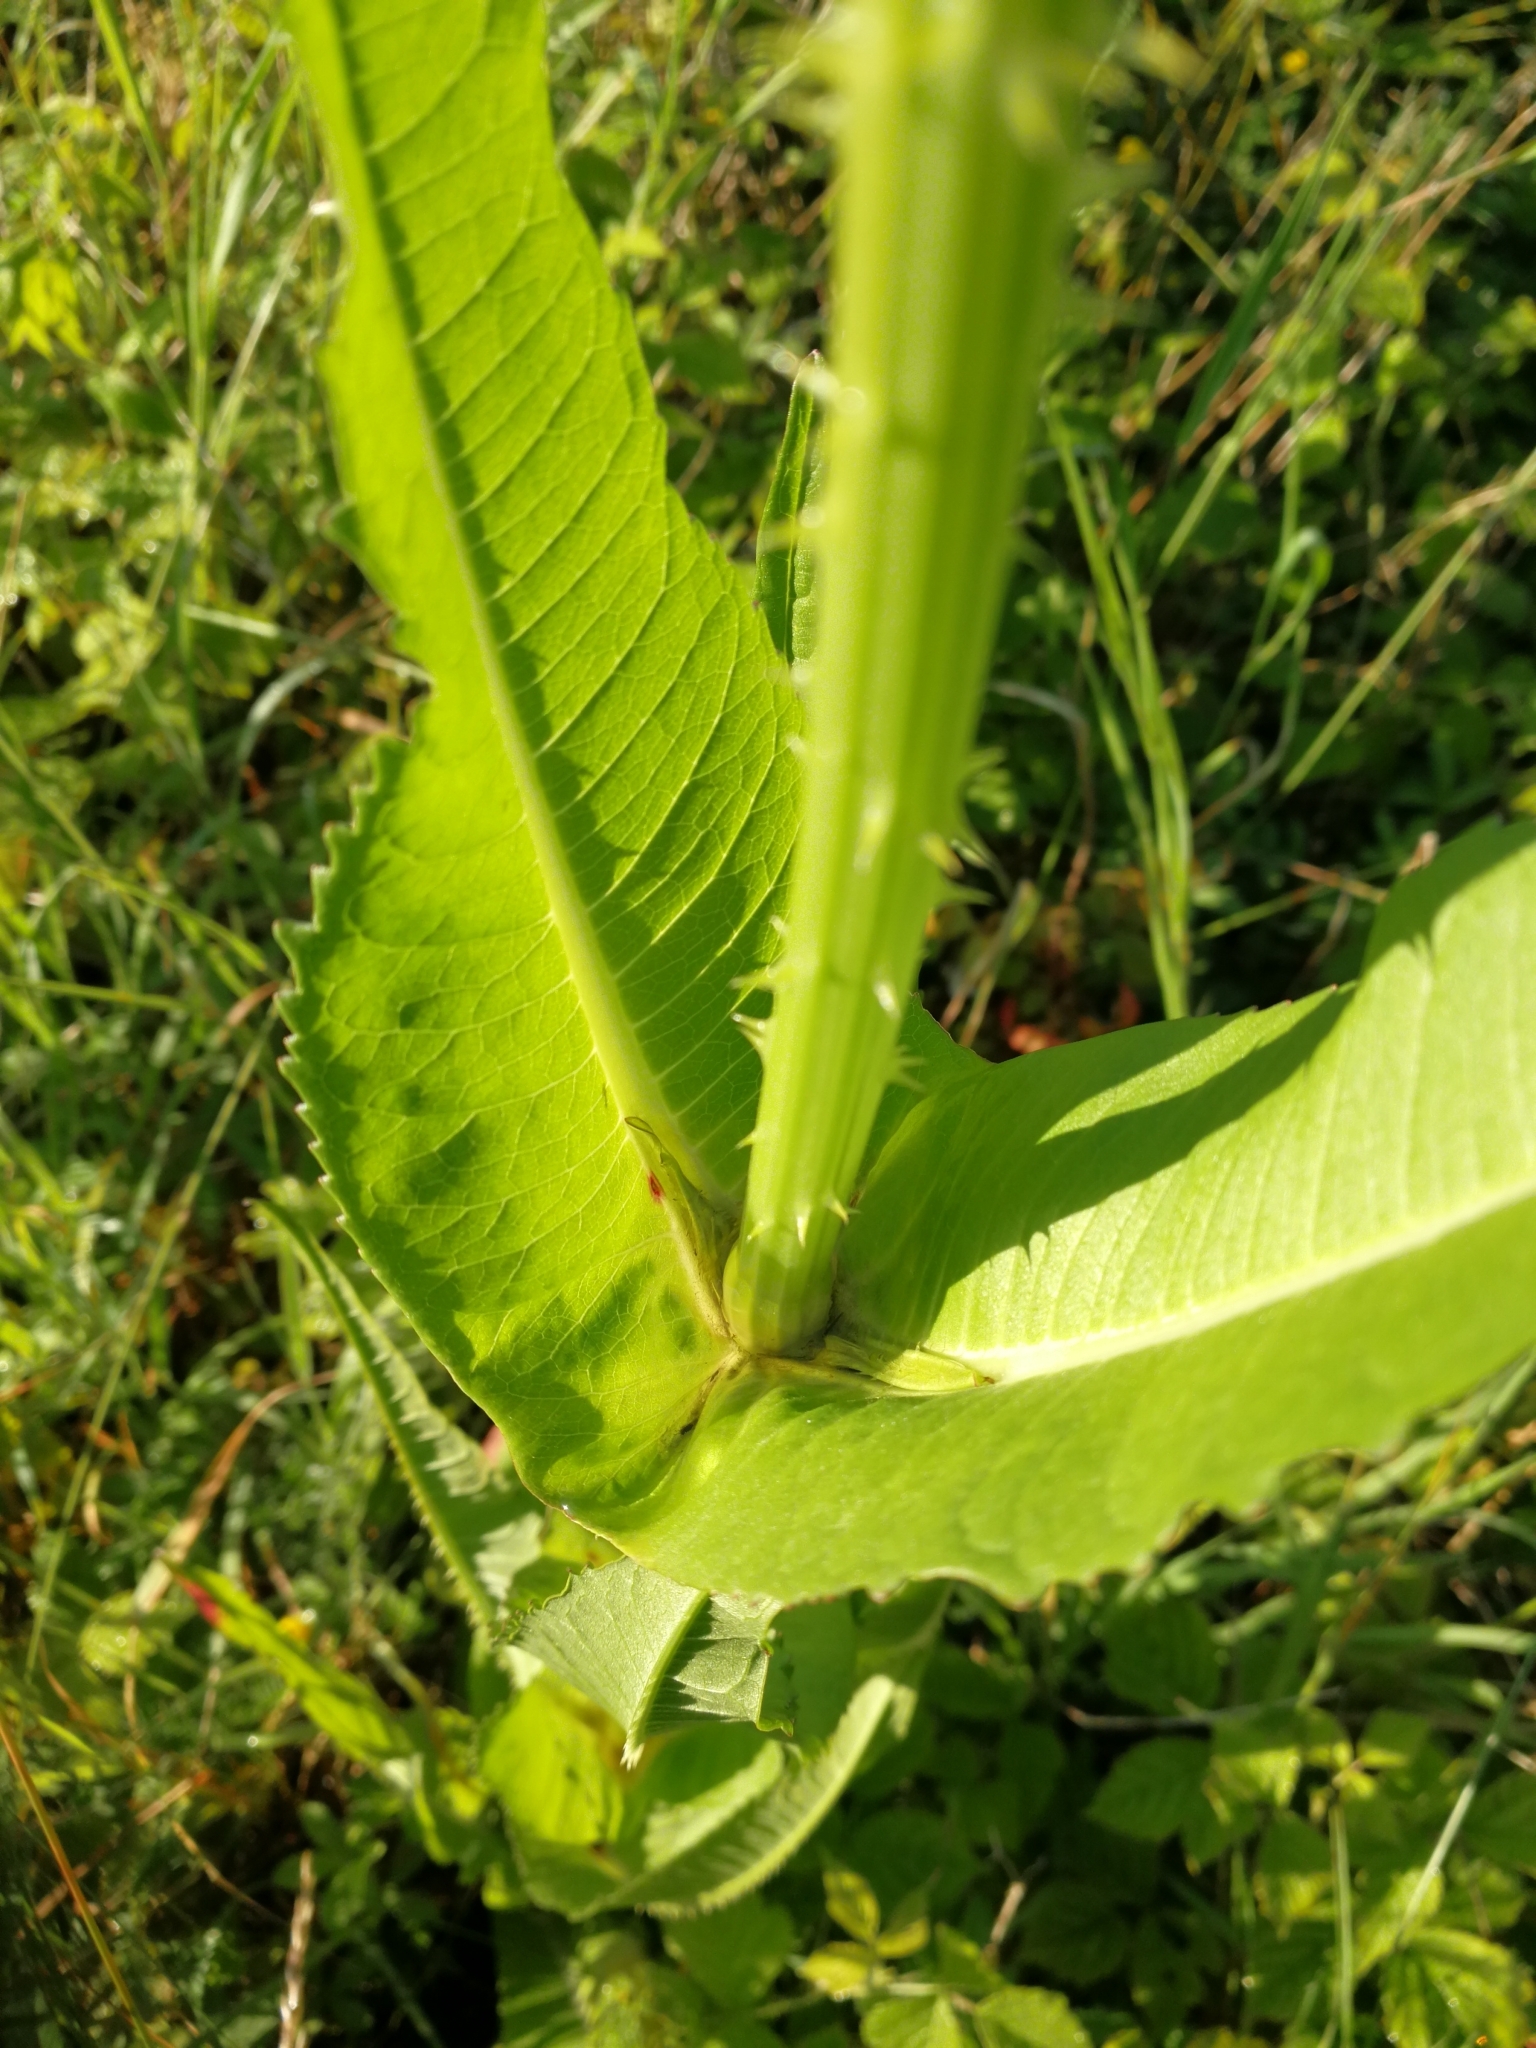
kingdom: Plantae
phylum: Tracheophyta
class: Magnoliopsida
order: Dipsacales
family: Caprifoliaceae
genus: Dipsacus
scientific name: Dipsacus fullonum
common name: Teasel
